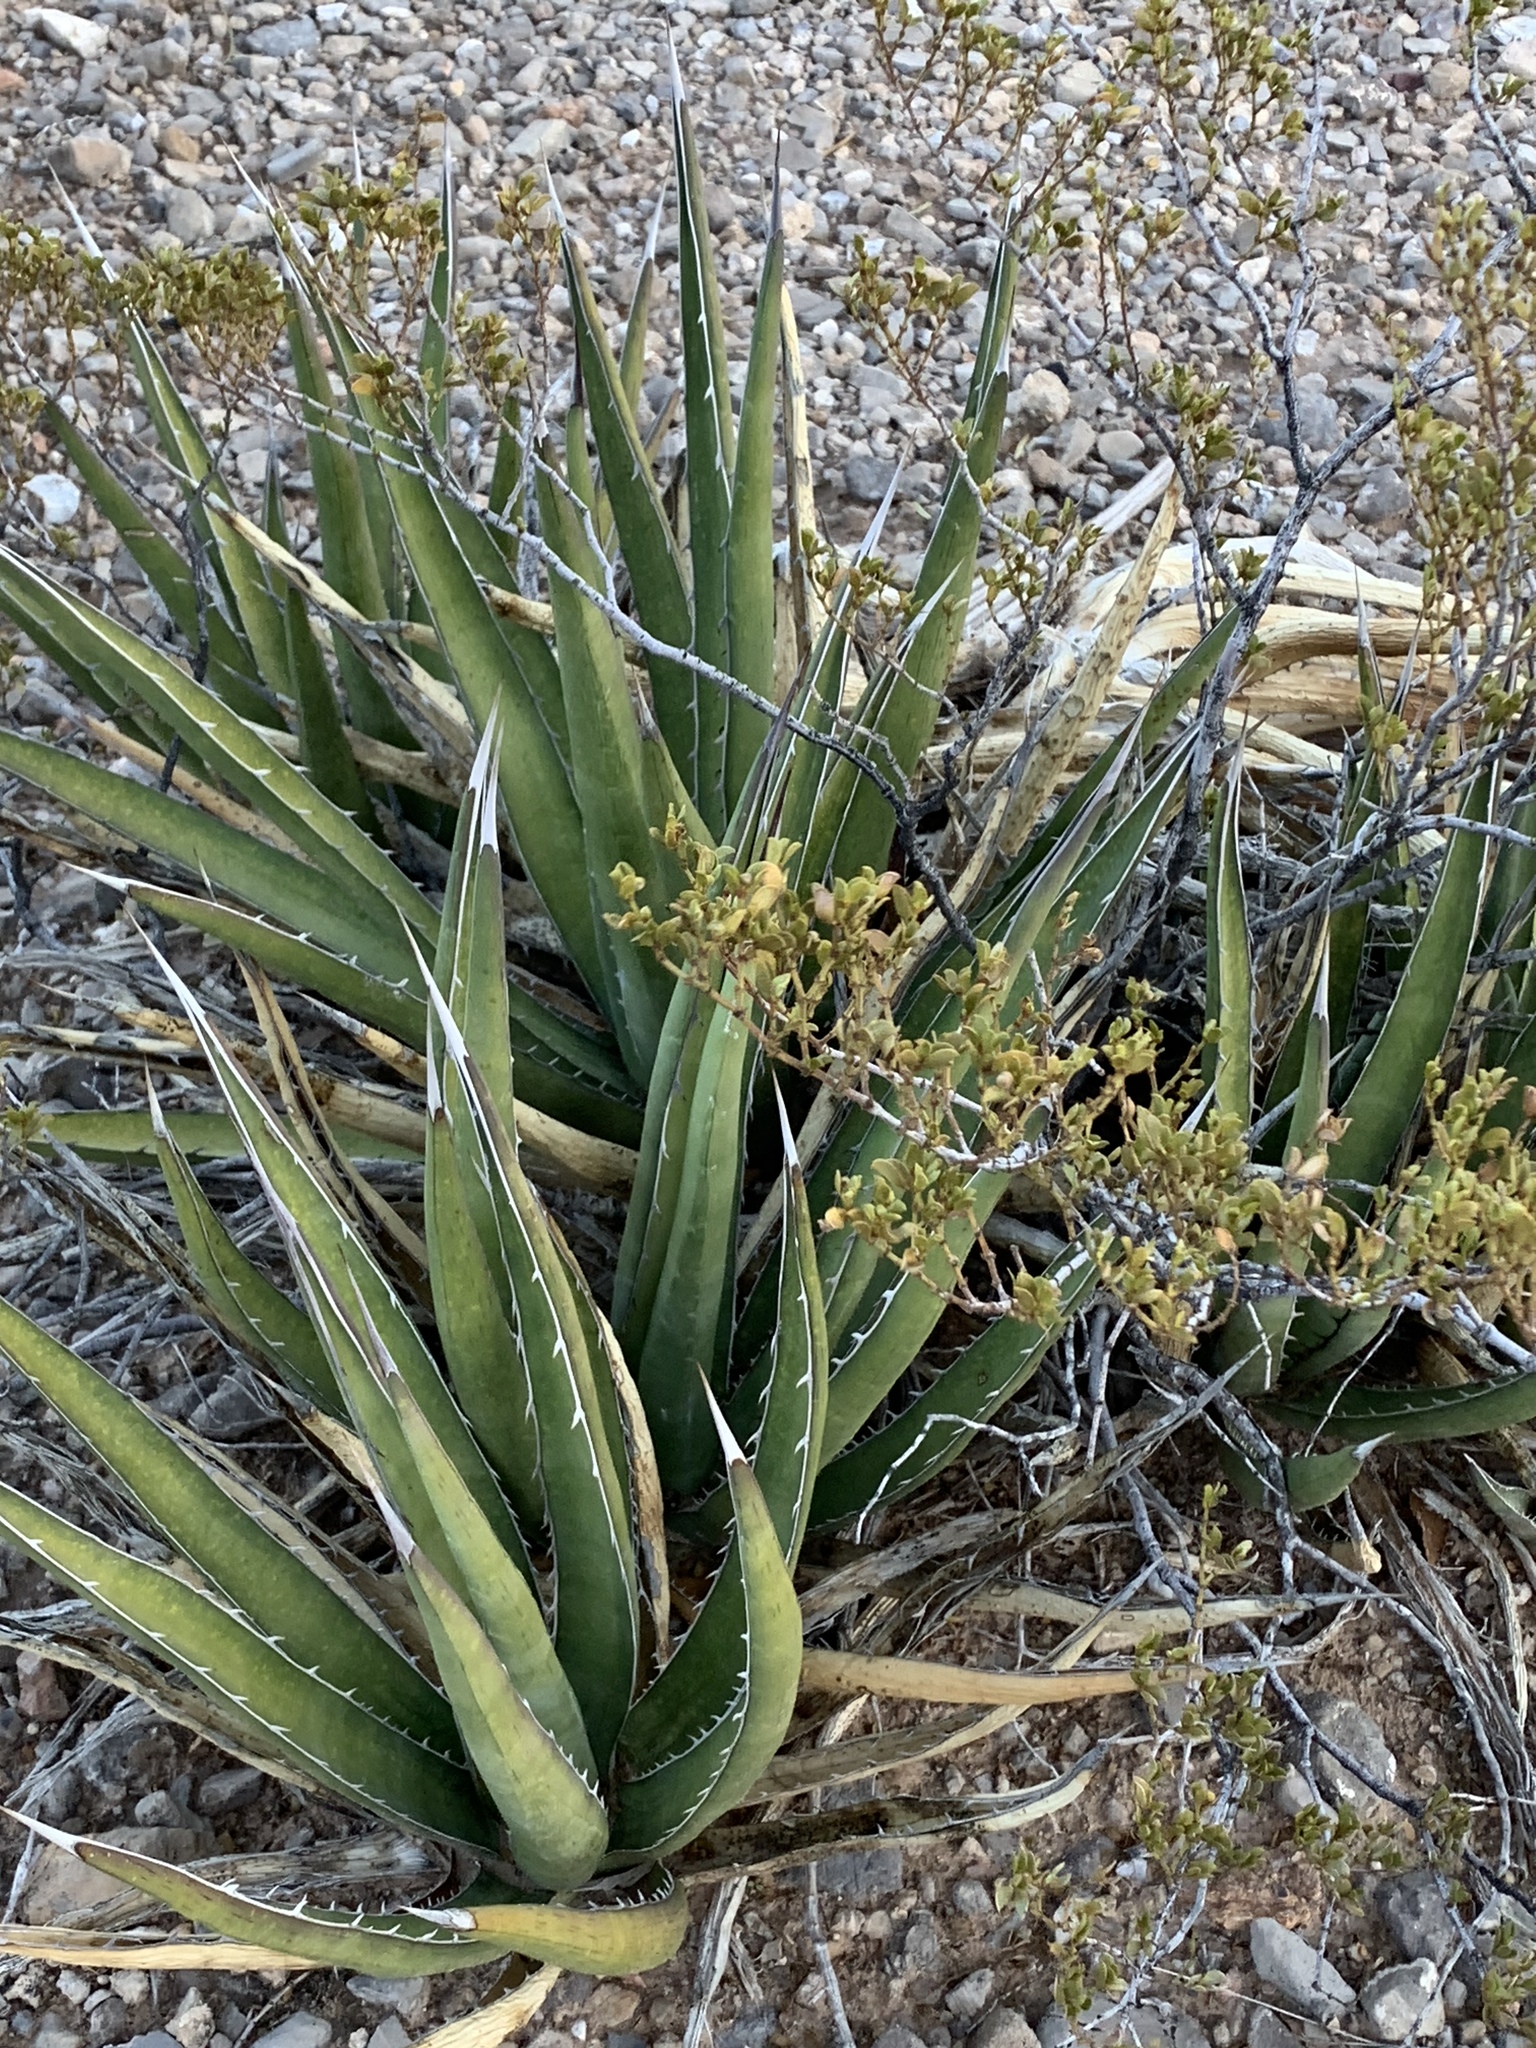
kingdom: Plantae
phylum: Tracheophyta
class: Liliopsida
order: Asparagales
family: Asparagaceae
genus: Agave
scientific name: Agave lechuguilla
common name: Lecheguilla agave
